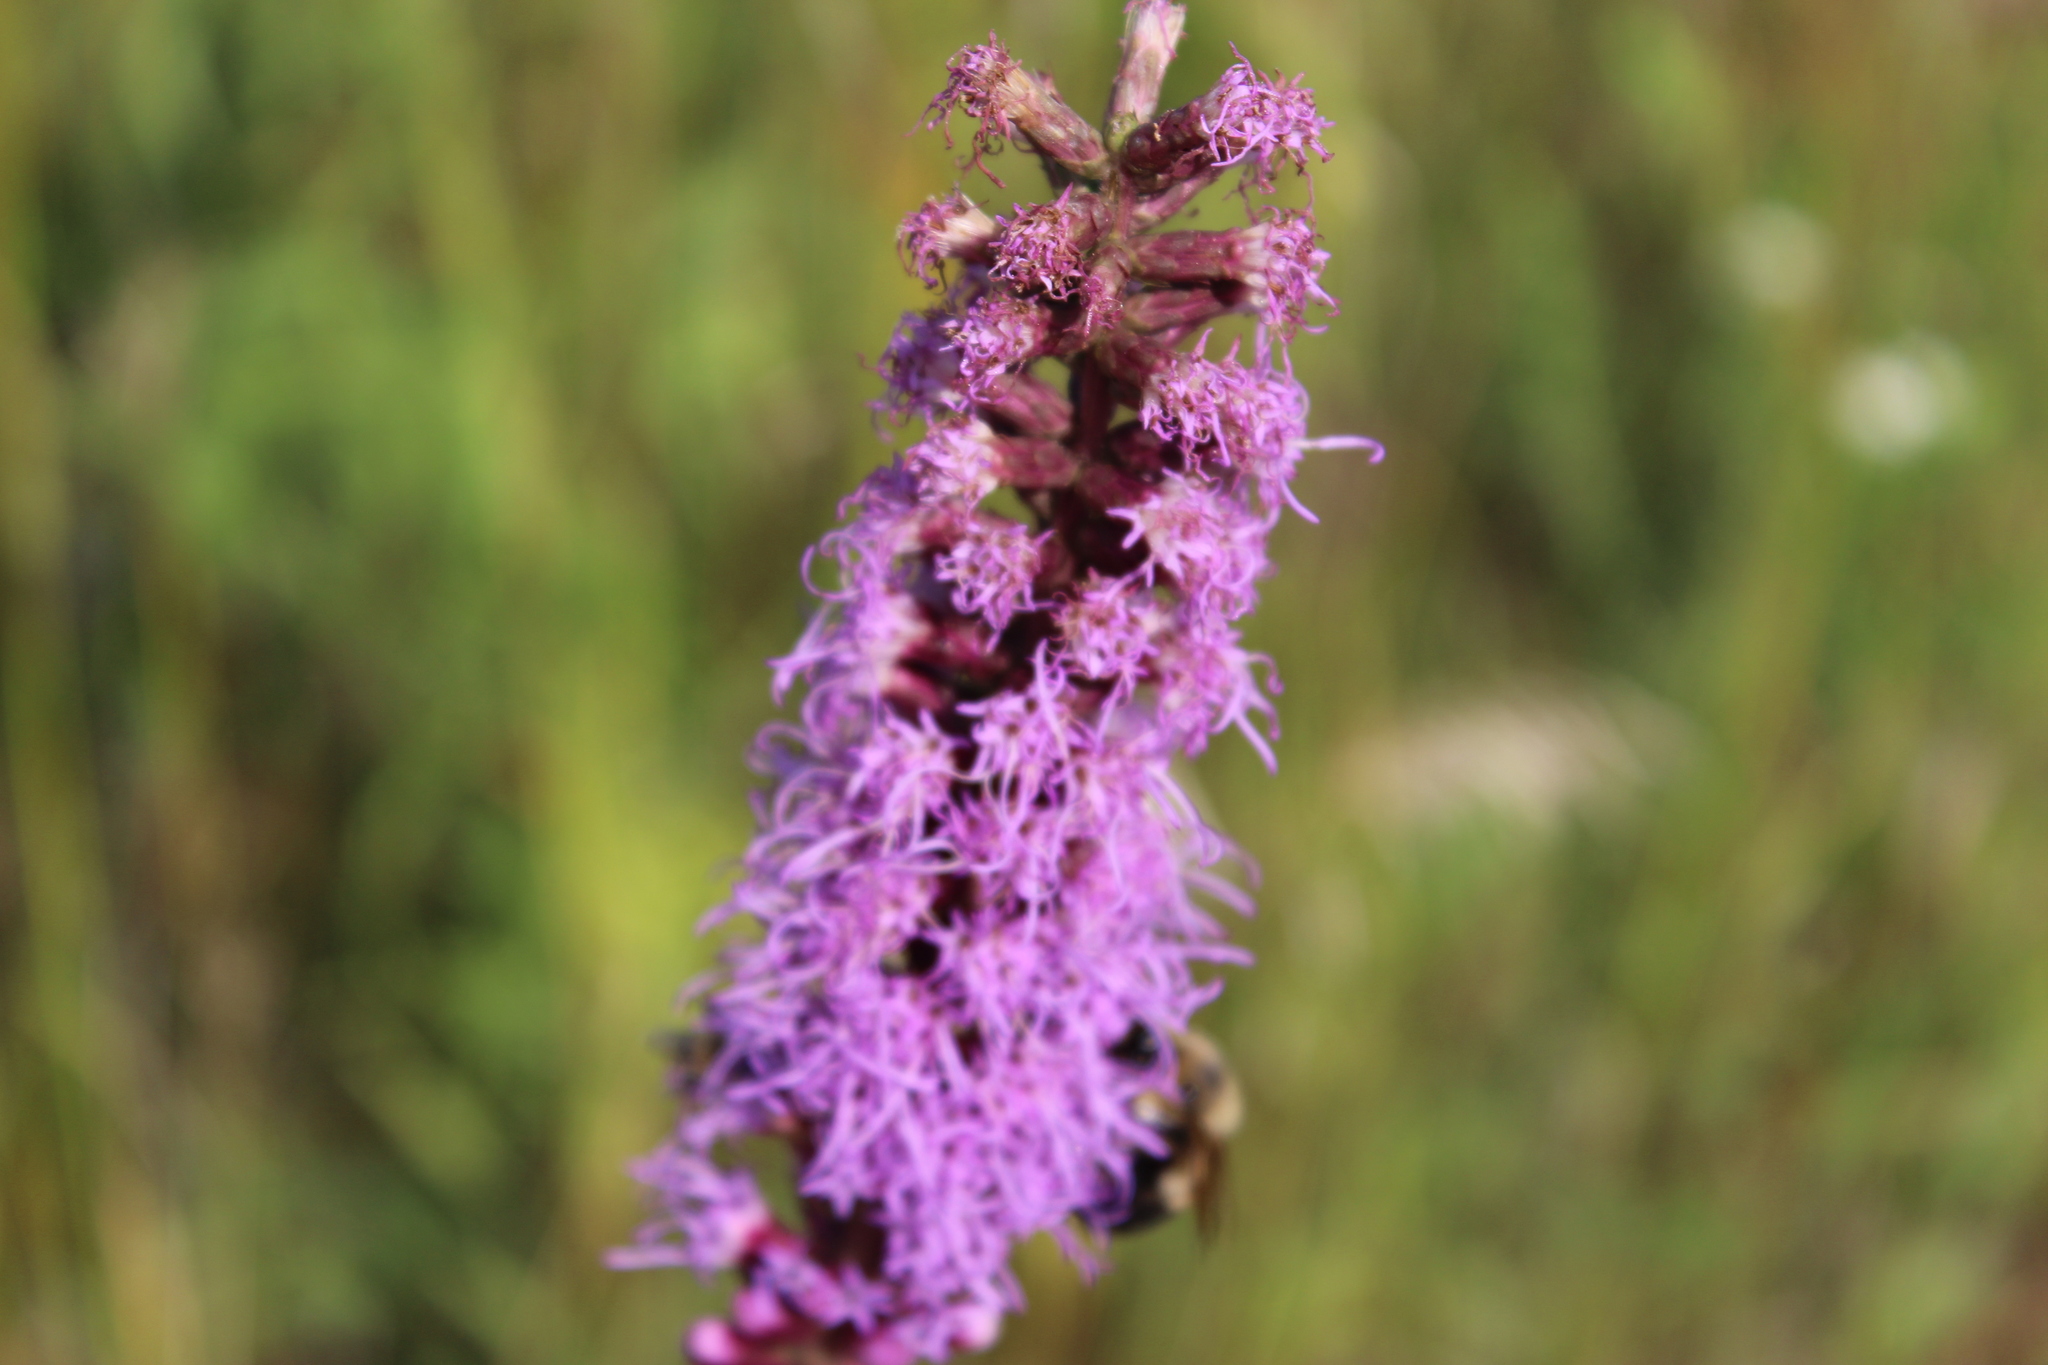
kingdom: Plantae
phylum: Tracheophyta
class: Magnoliopsida
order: Asterales
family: Asteraceae
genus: Liatris
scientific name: Liatris spicata
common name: Florist gayfeather
